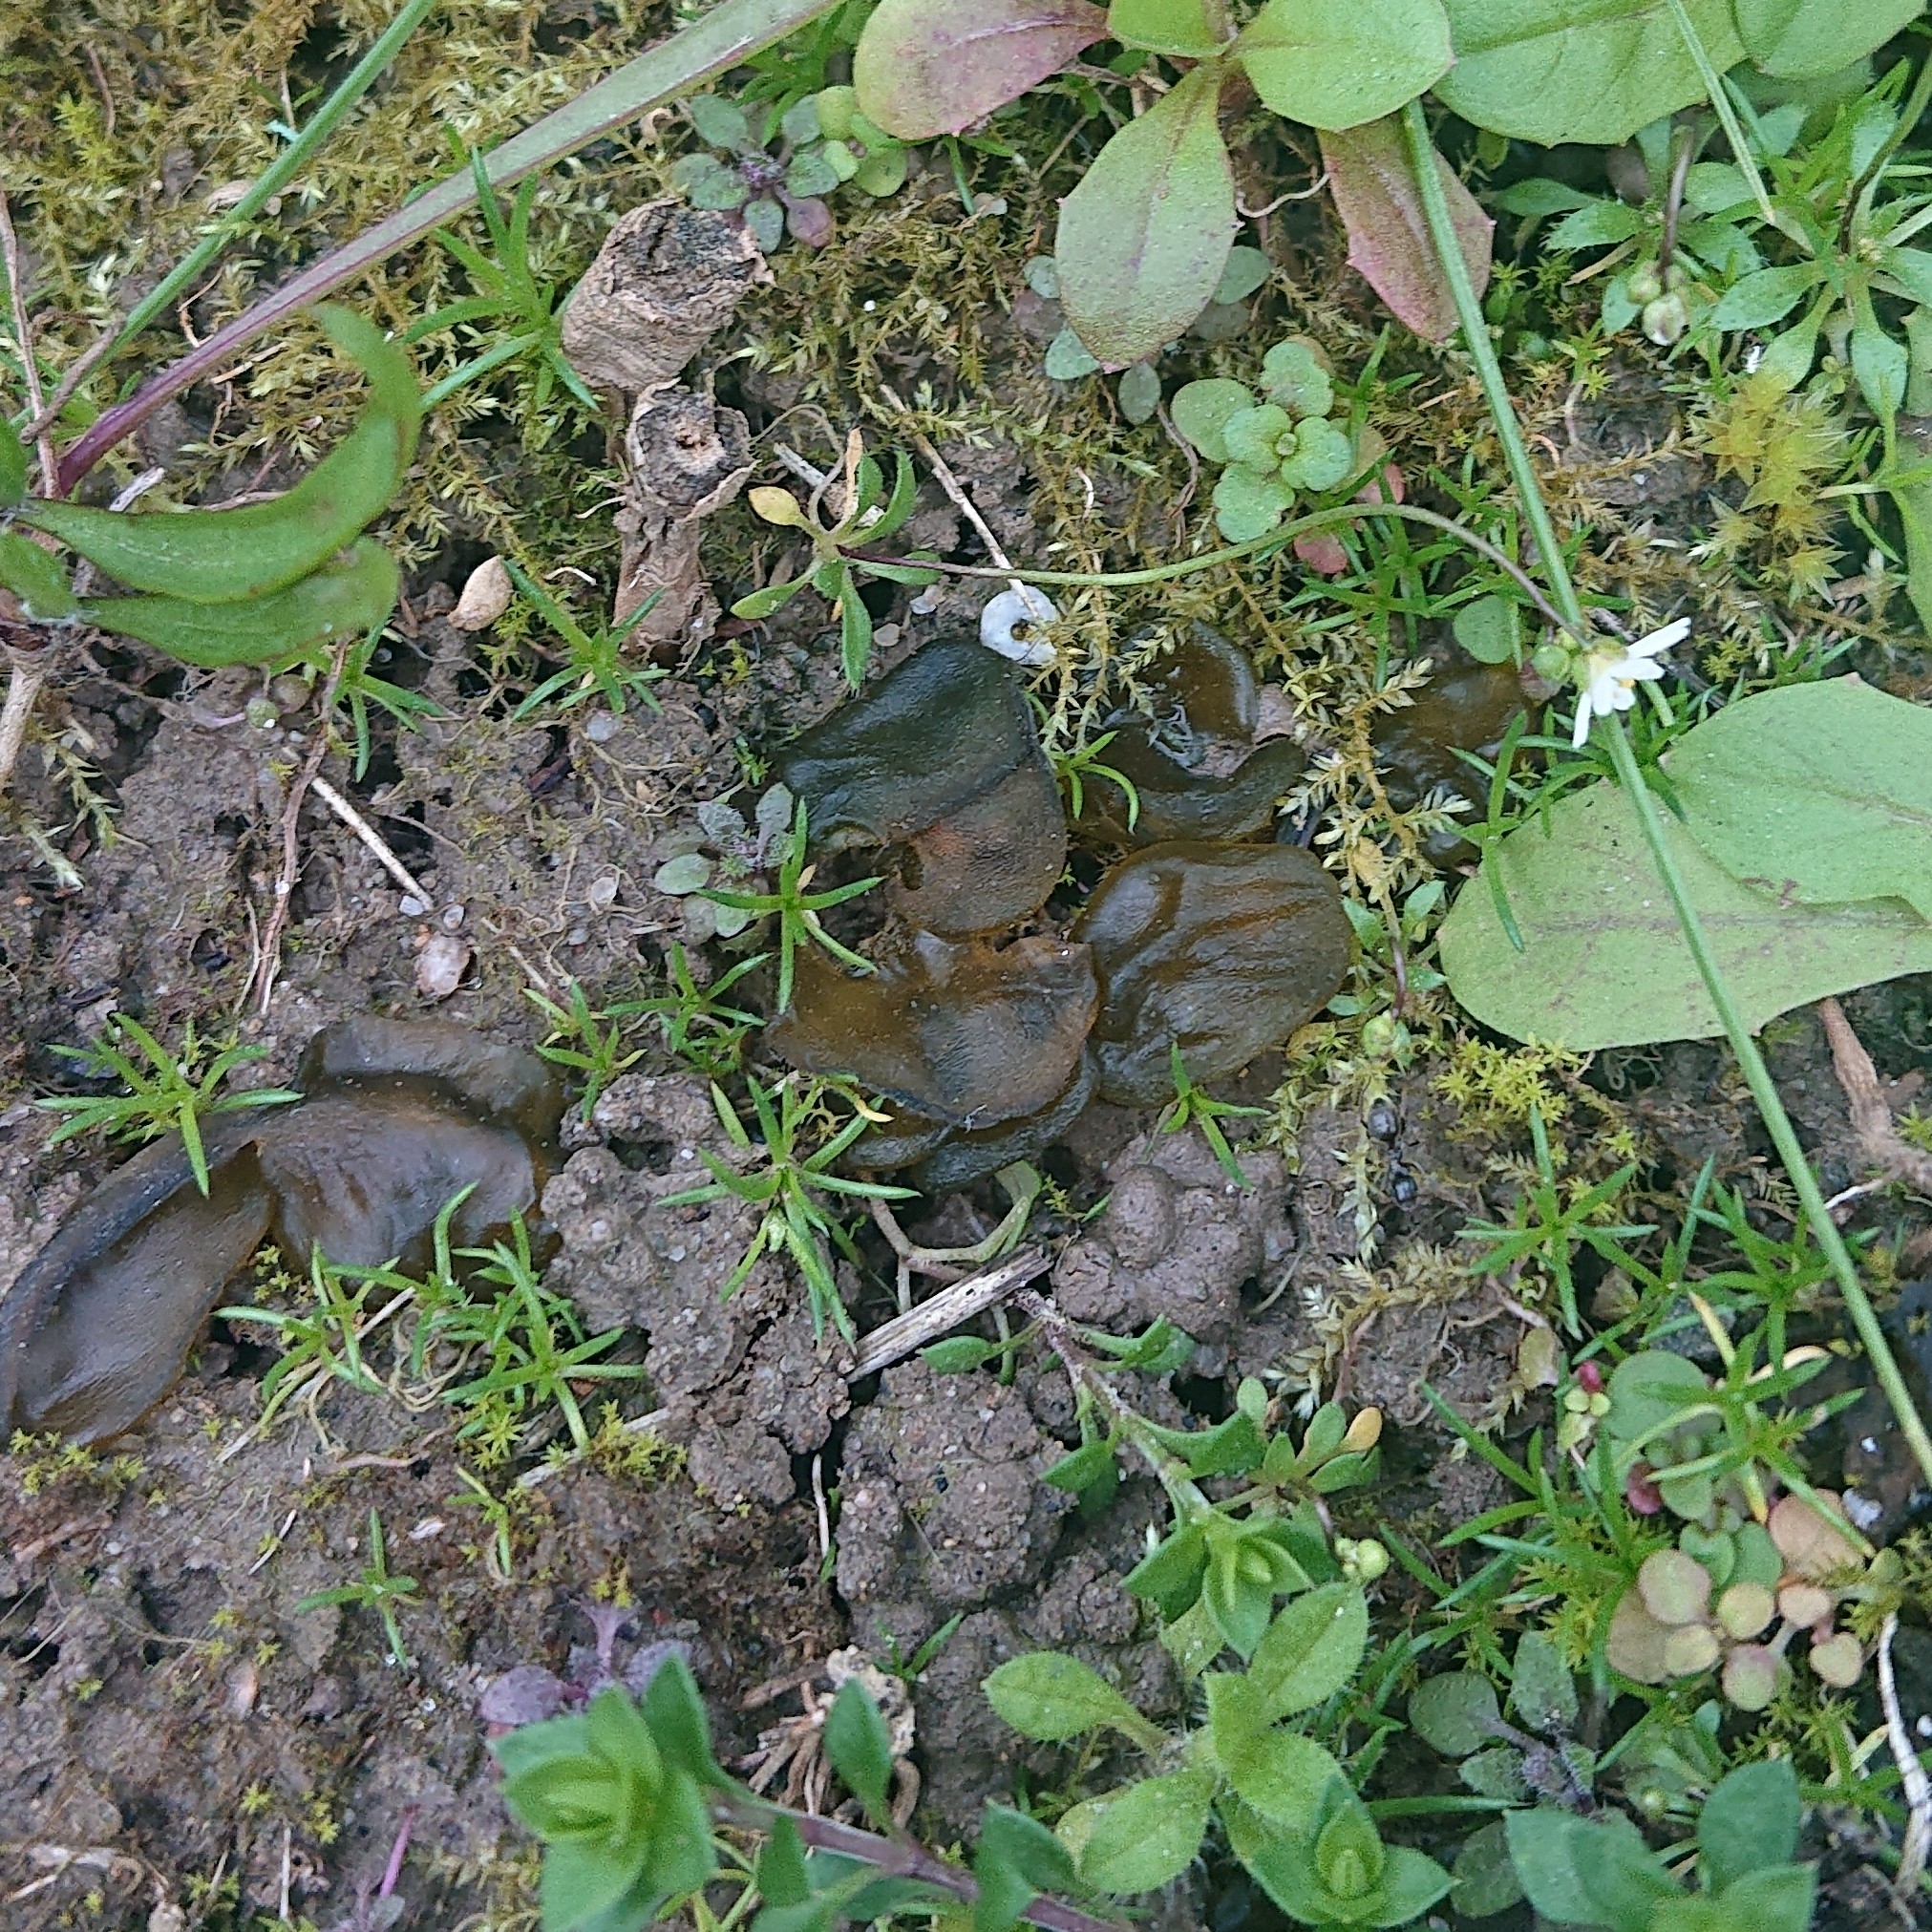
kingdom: Bacteria
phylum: Cyanobacteria
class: Cyanobacteriia
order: Cyanobacteriales
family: Nostocaceae
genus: Nostoc
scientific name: Nostoc commune
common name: Star jelly
